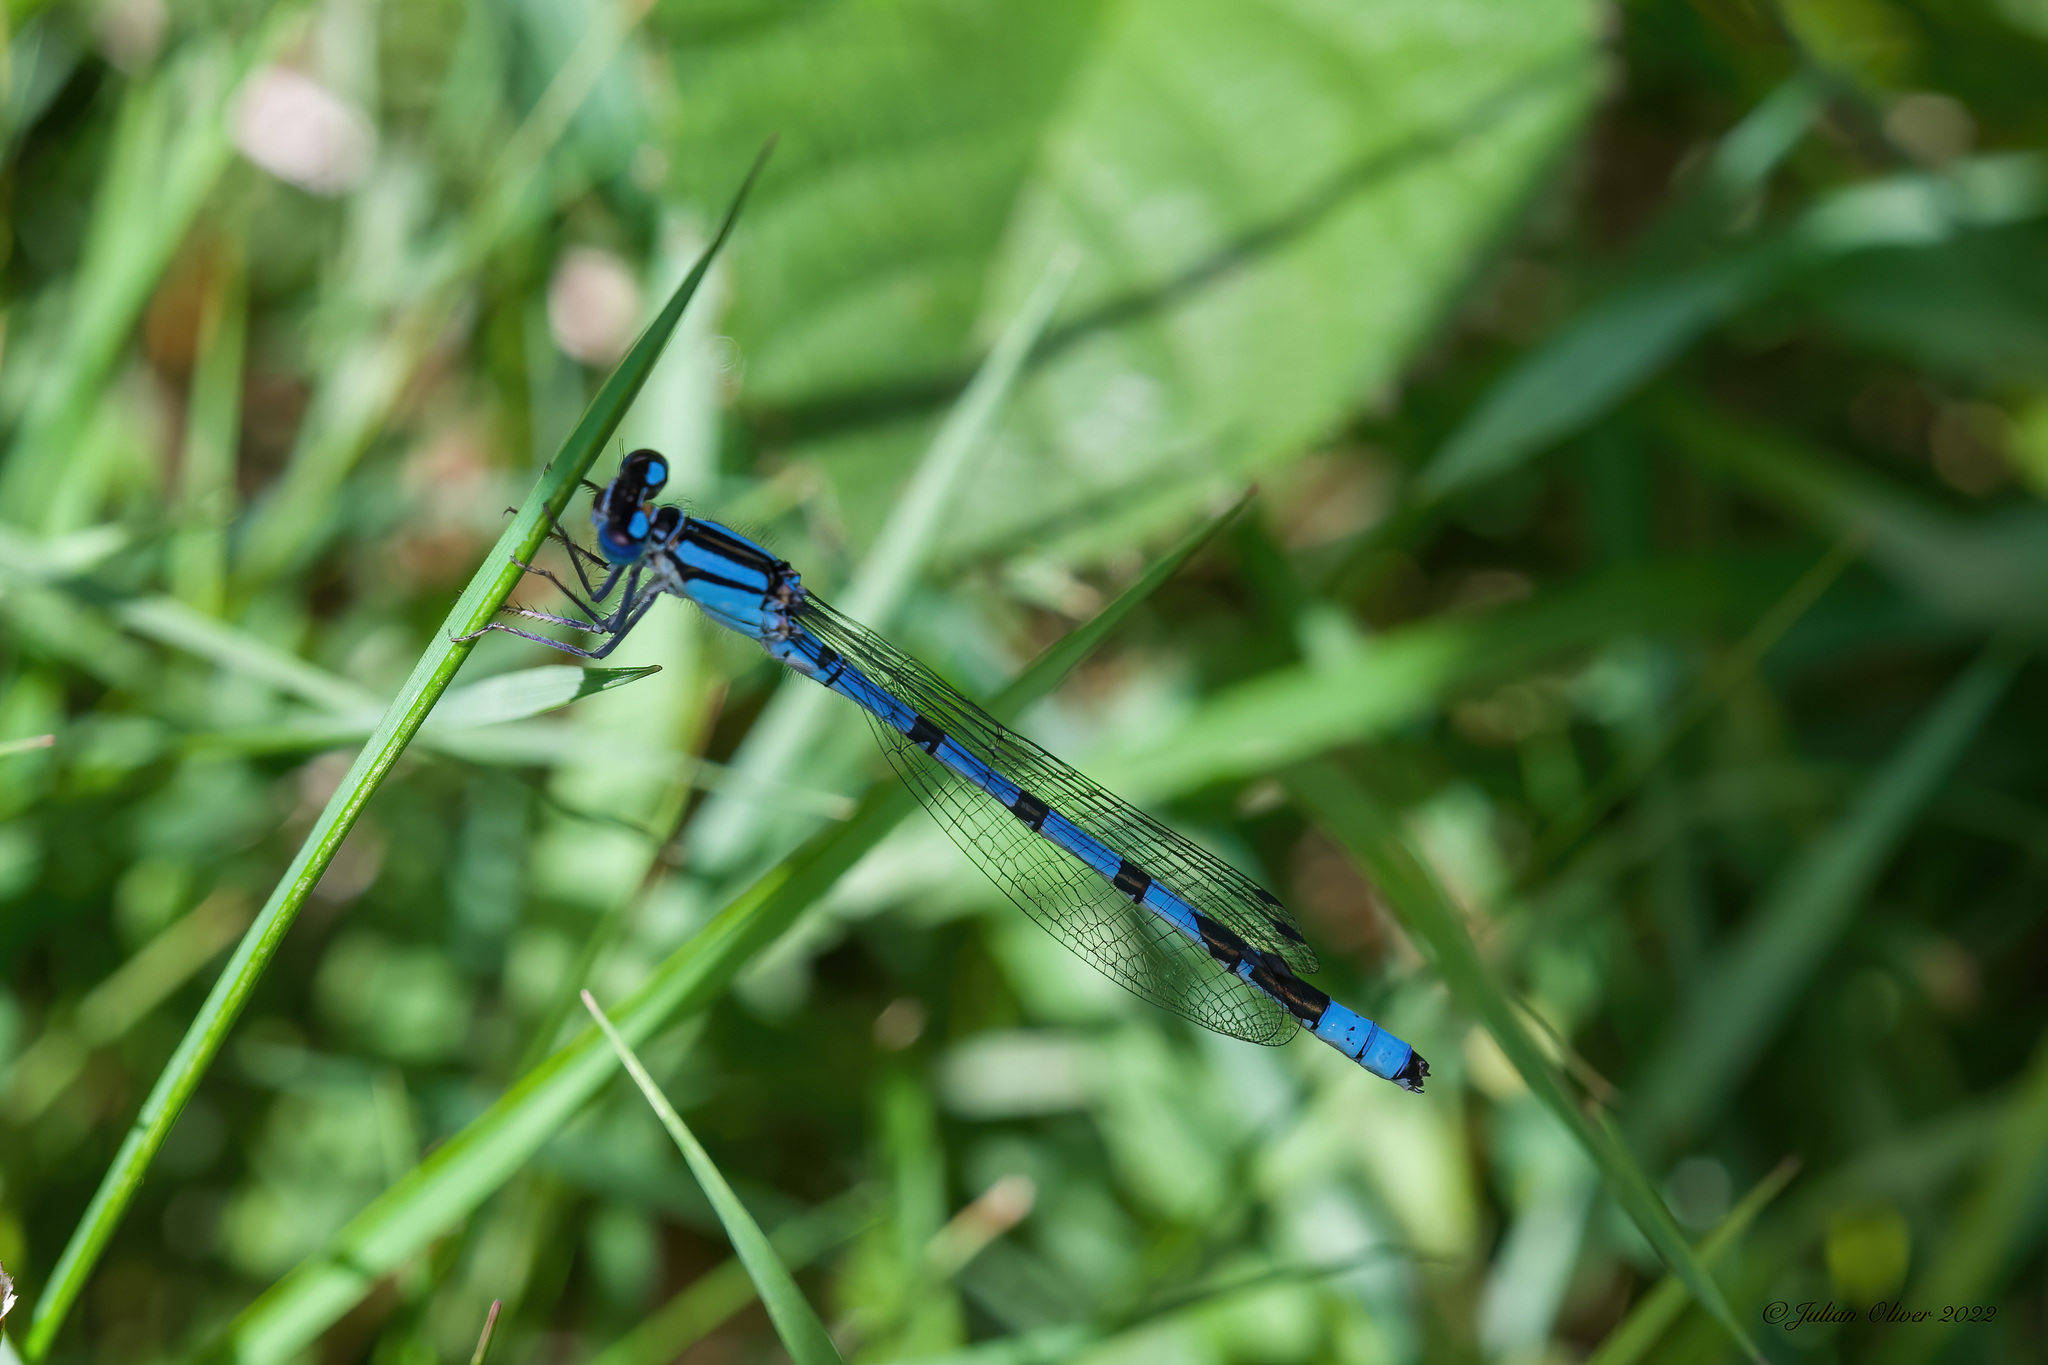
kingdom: Animalia
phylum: Arthropoda
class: Insecta
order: Odonata
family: Coenagrionidae
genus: Enallagma
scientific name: Enallagma cyathigerum
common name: Common blue damselfly
